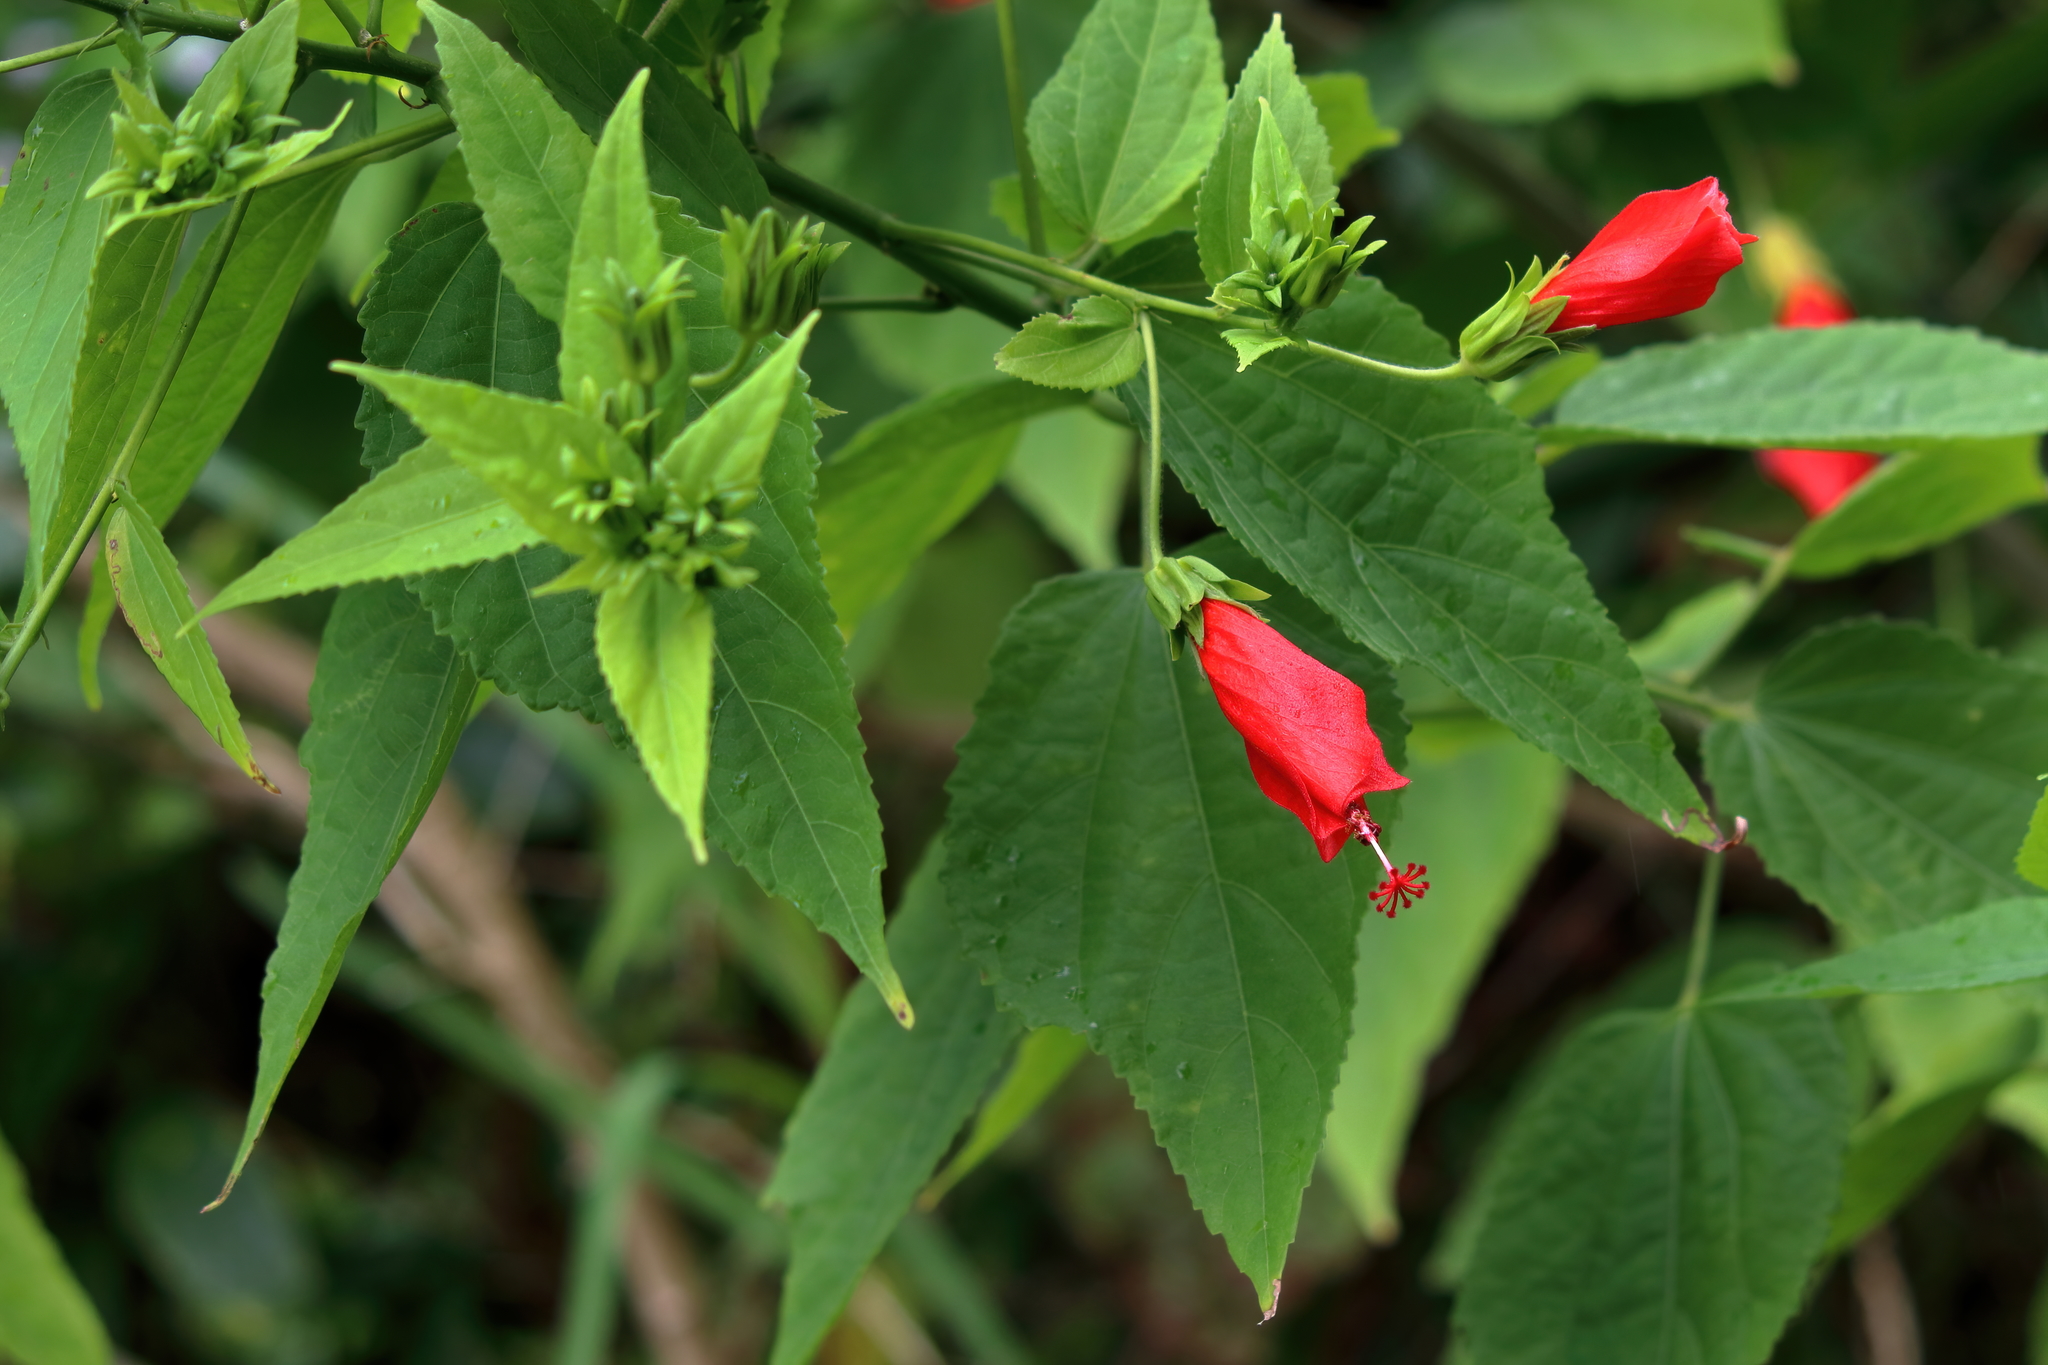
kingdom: Plantae
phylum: Tracheophyta
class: Magnoliopsida
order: Malvales
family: Malvaceae
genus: Malvaviscus
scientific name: Malvaviscus penduliflorus
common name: Mazapan
